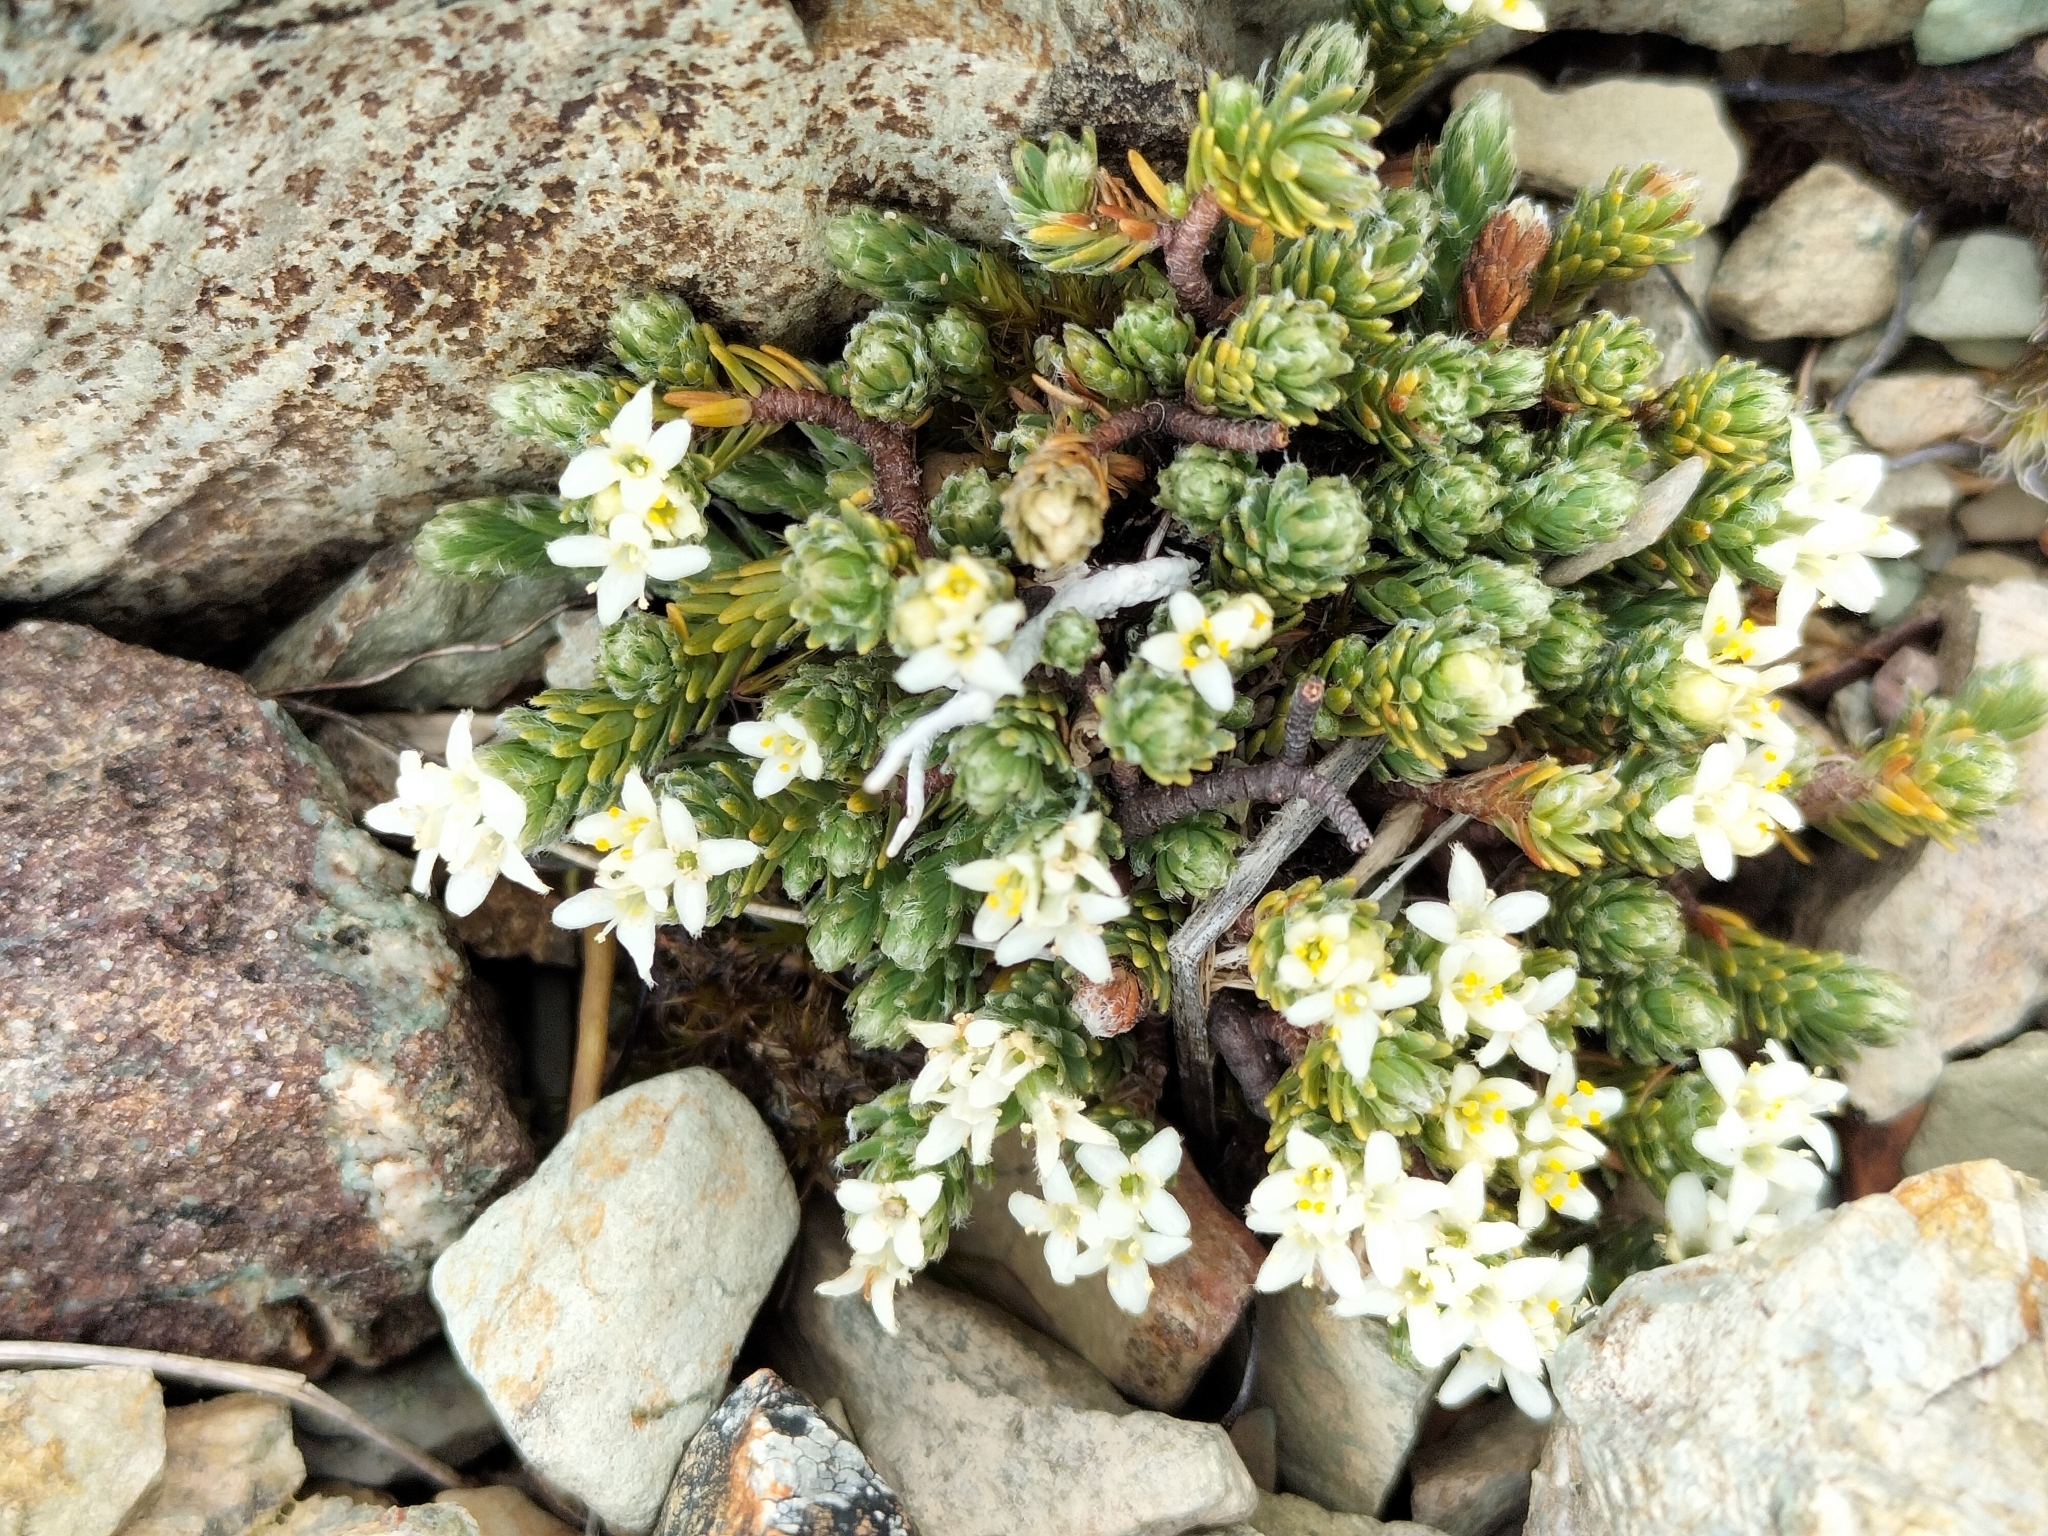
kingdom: Plantae
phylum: Tracheophyta
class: Magnoliopsida
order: Malvales
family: Thymelaeaceae
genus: Kelleria
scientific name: Kelleria dieffenbachii
